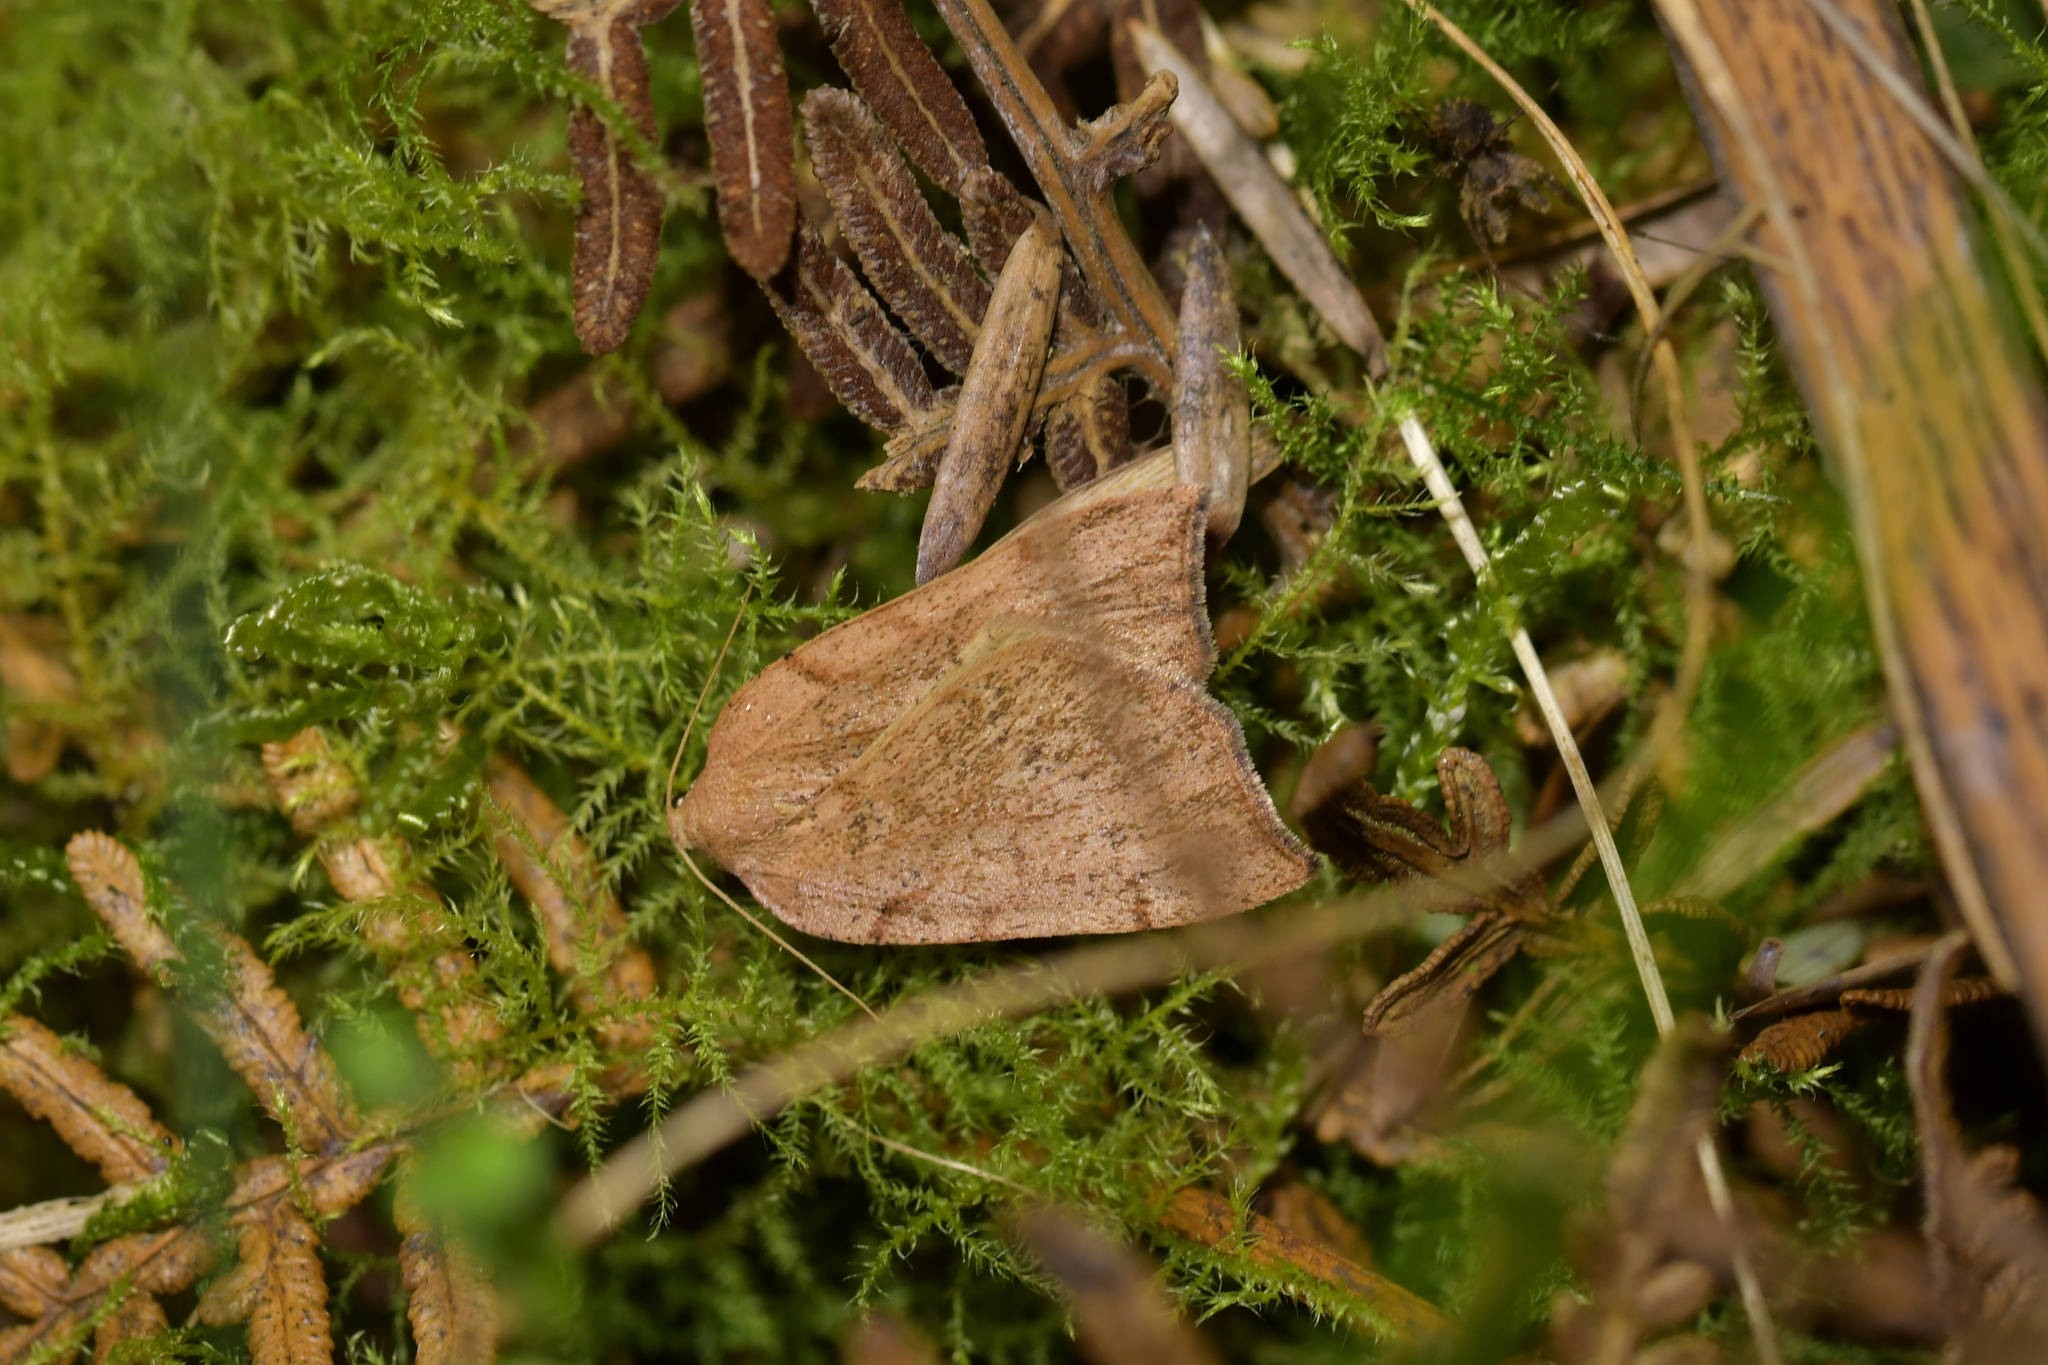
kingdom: Animalia
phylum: Arthropoda
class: Insecta
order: Lepidoptera
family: Geometridae
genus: Sestra
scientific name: Sestra humeraria
